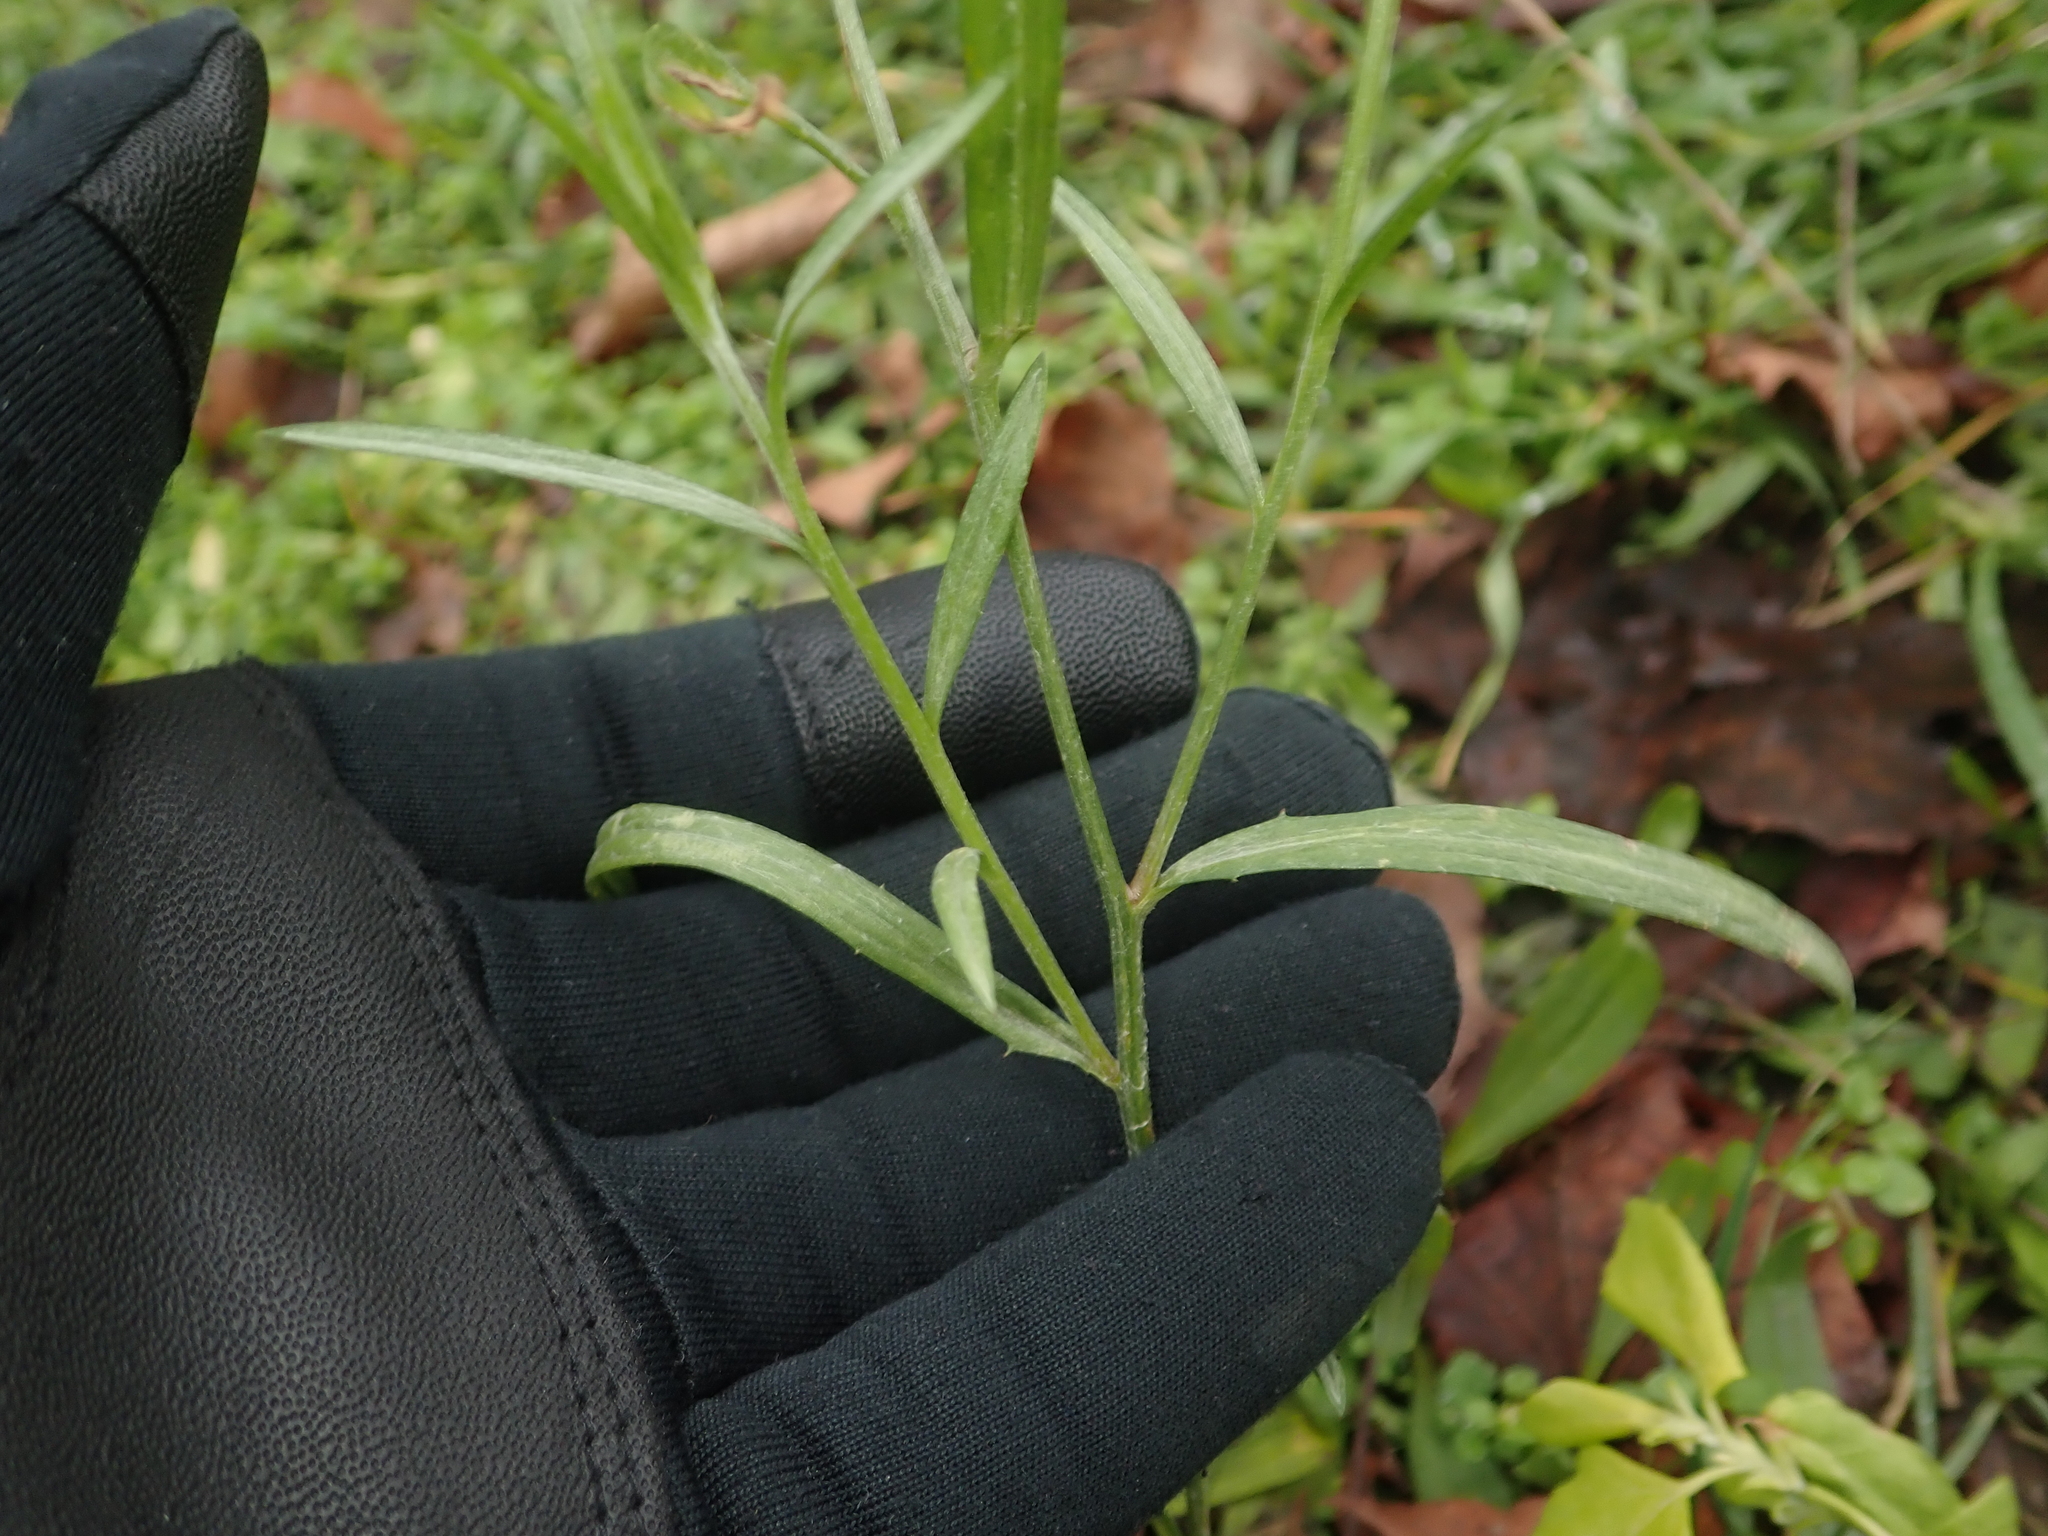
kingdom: Plantae
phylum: Tracheophyta
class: Magnoliopsida
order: Asterales
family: Asteraceae
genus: Centaurea
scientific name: Centaurea cyanus
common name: Cornflower
